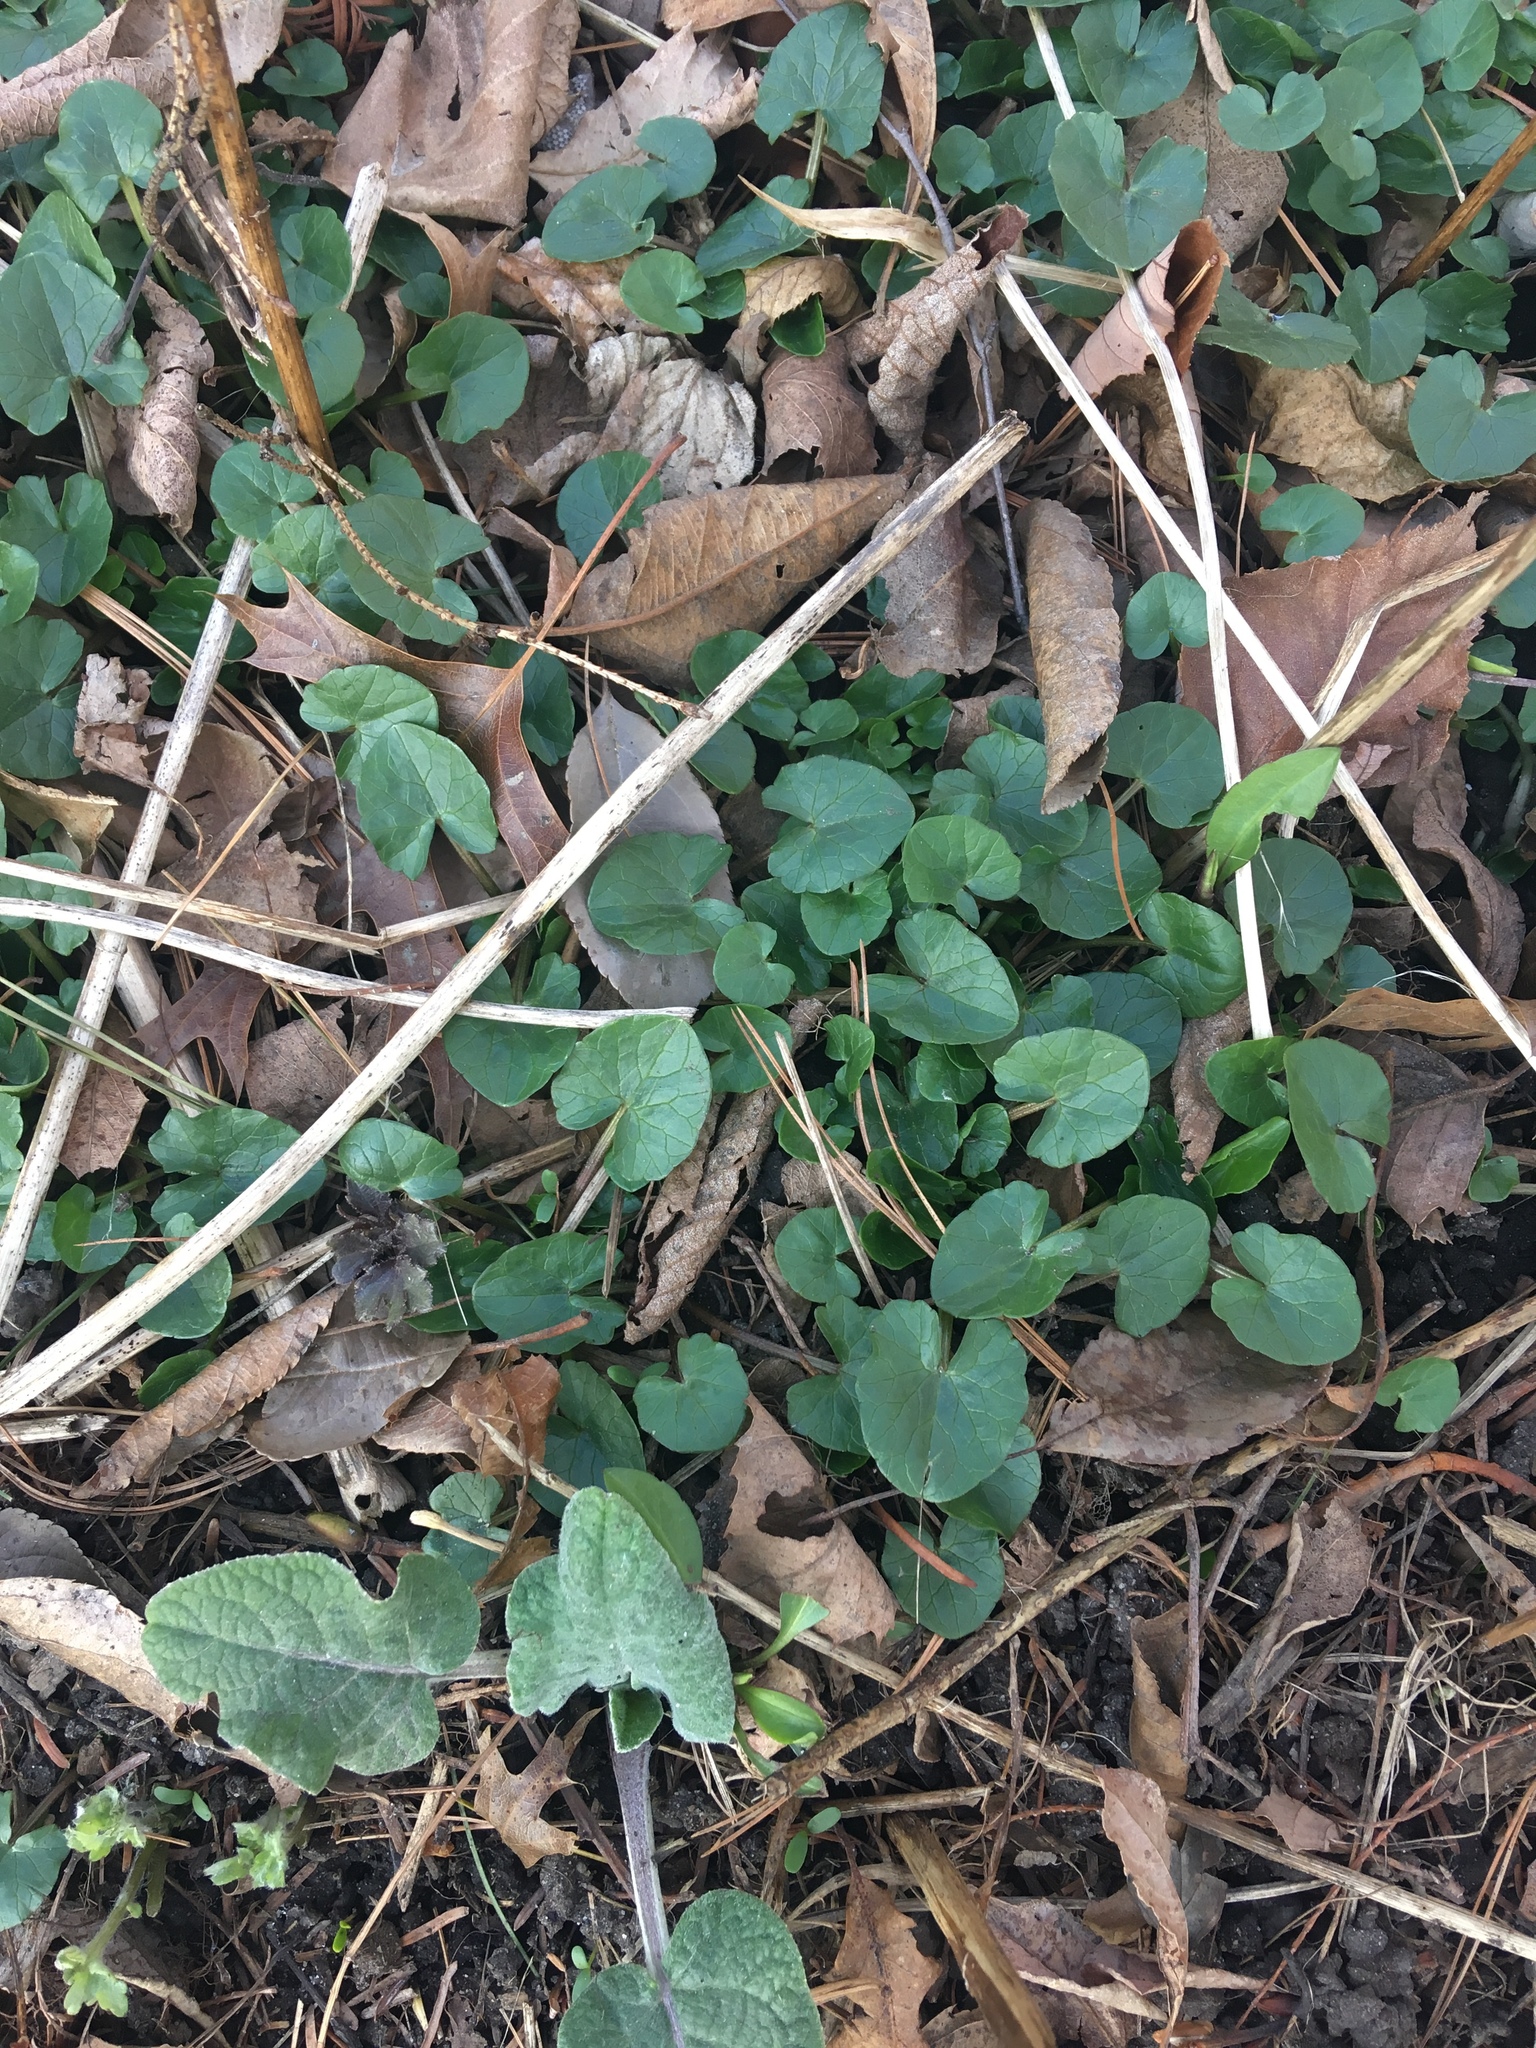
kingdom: Plantae
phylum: Tracheophyta
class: Magnoliopsida
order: Ranunculales
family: Ranunculaceae
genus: Ficaria
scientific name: Ficaria verna
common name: Lesser celandine
